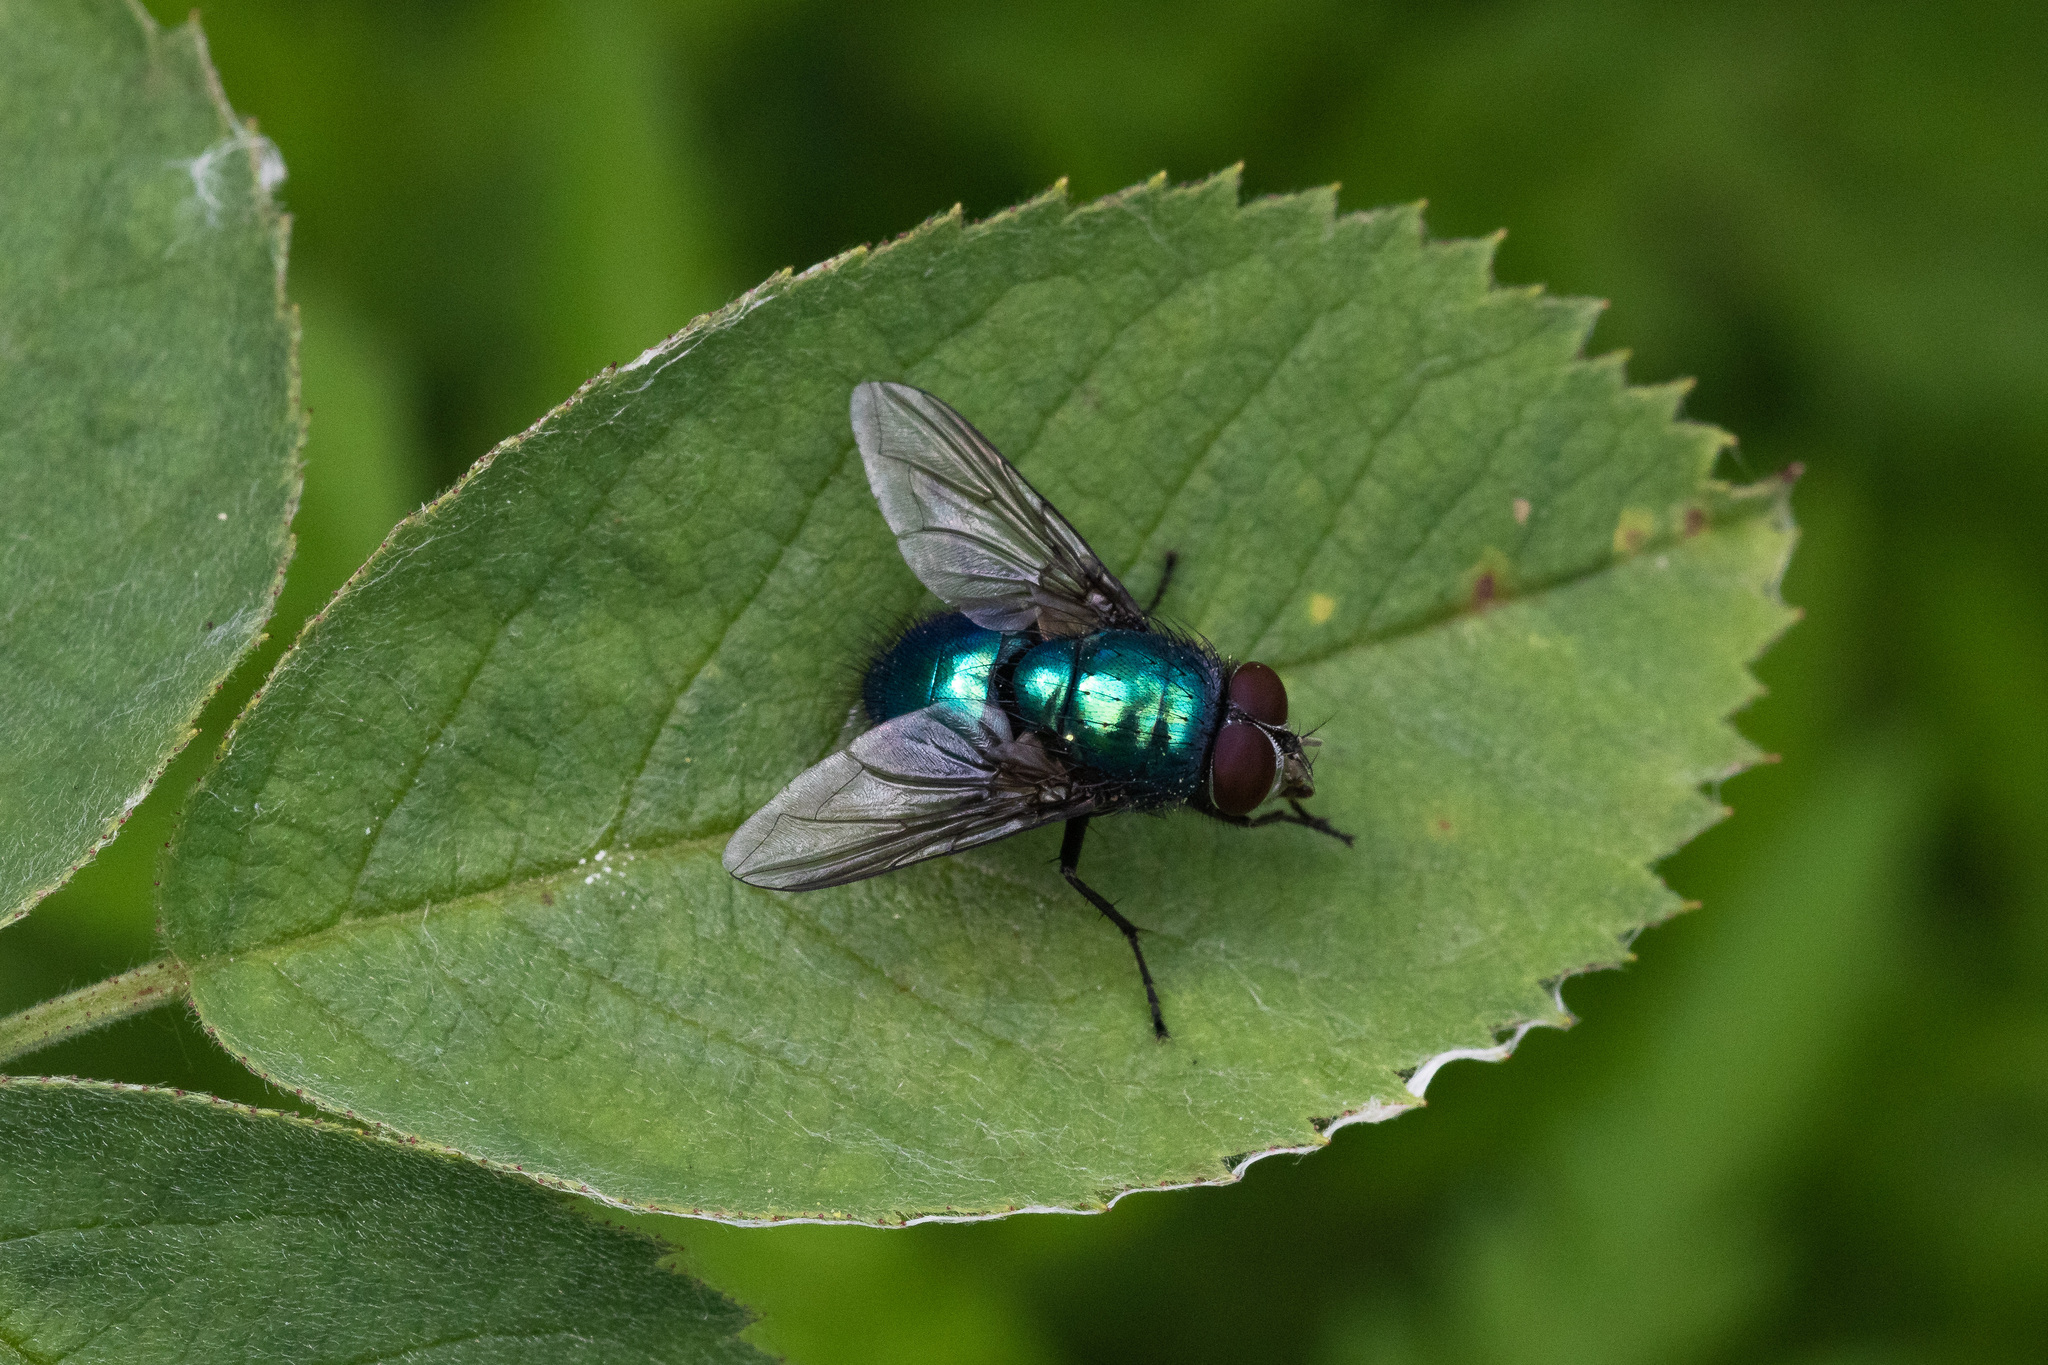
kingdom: Animalia
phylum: Arthropoda
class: Insecta
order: Diptera
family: Calliphoridae
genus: Lucilia
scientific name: Lucilia
